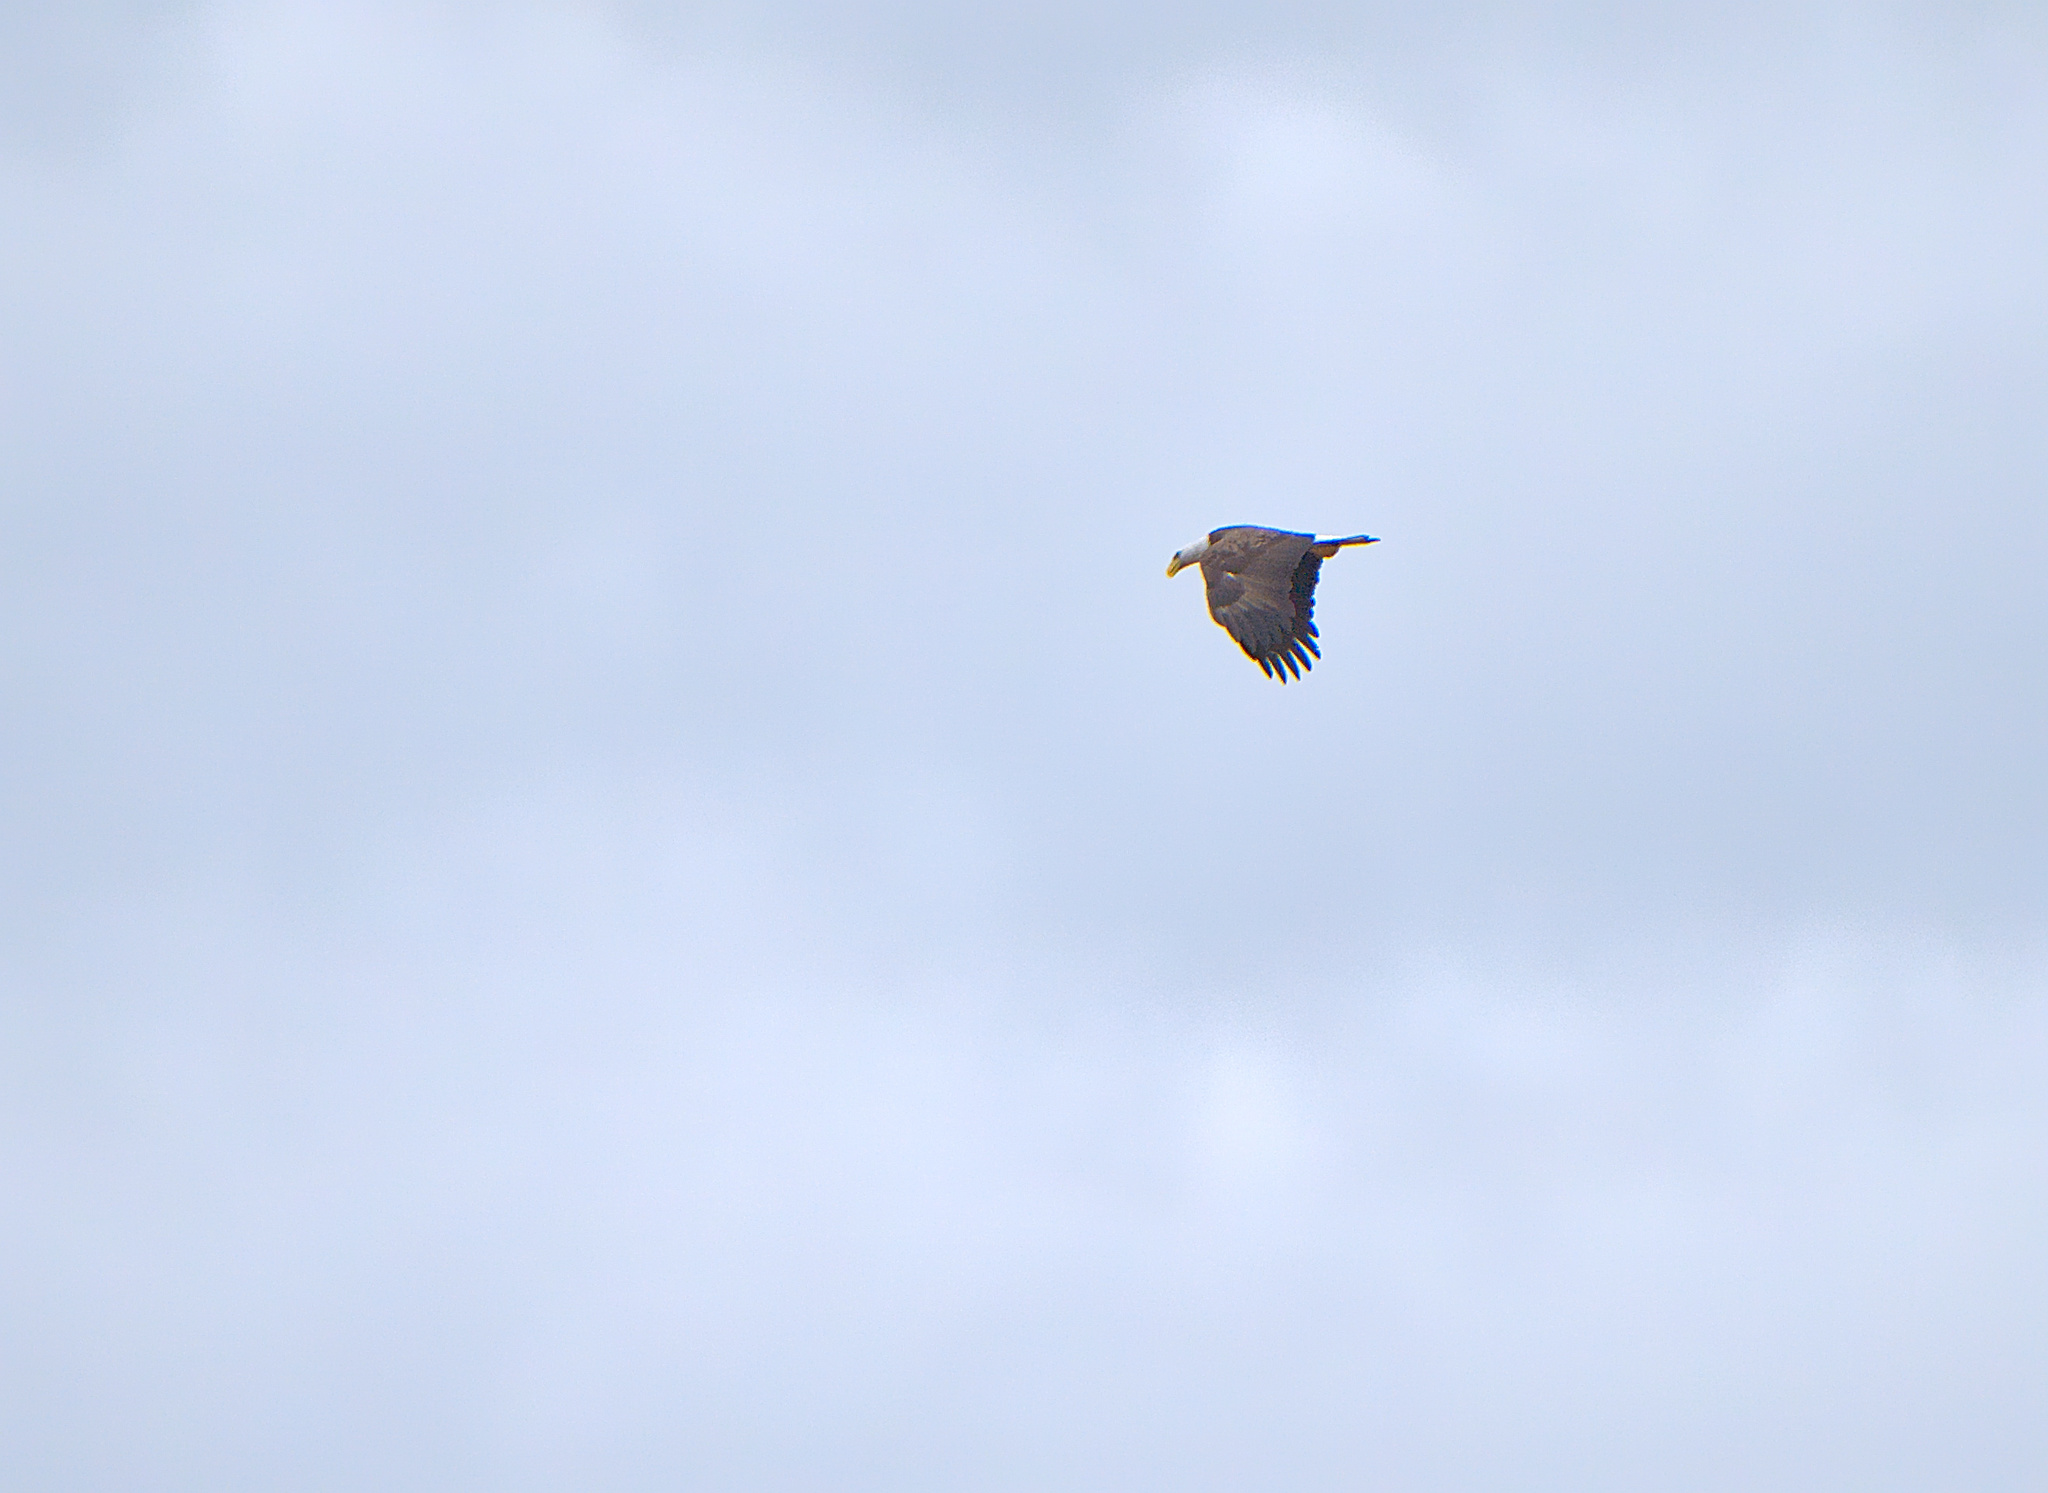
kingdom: Animalia
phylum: Chordata
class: Aves
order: Accipitriformes
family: Accipitridae
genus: Haliaeetus
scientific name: Haliaeetus leucocephalus
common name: Bald eagle
